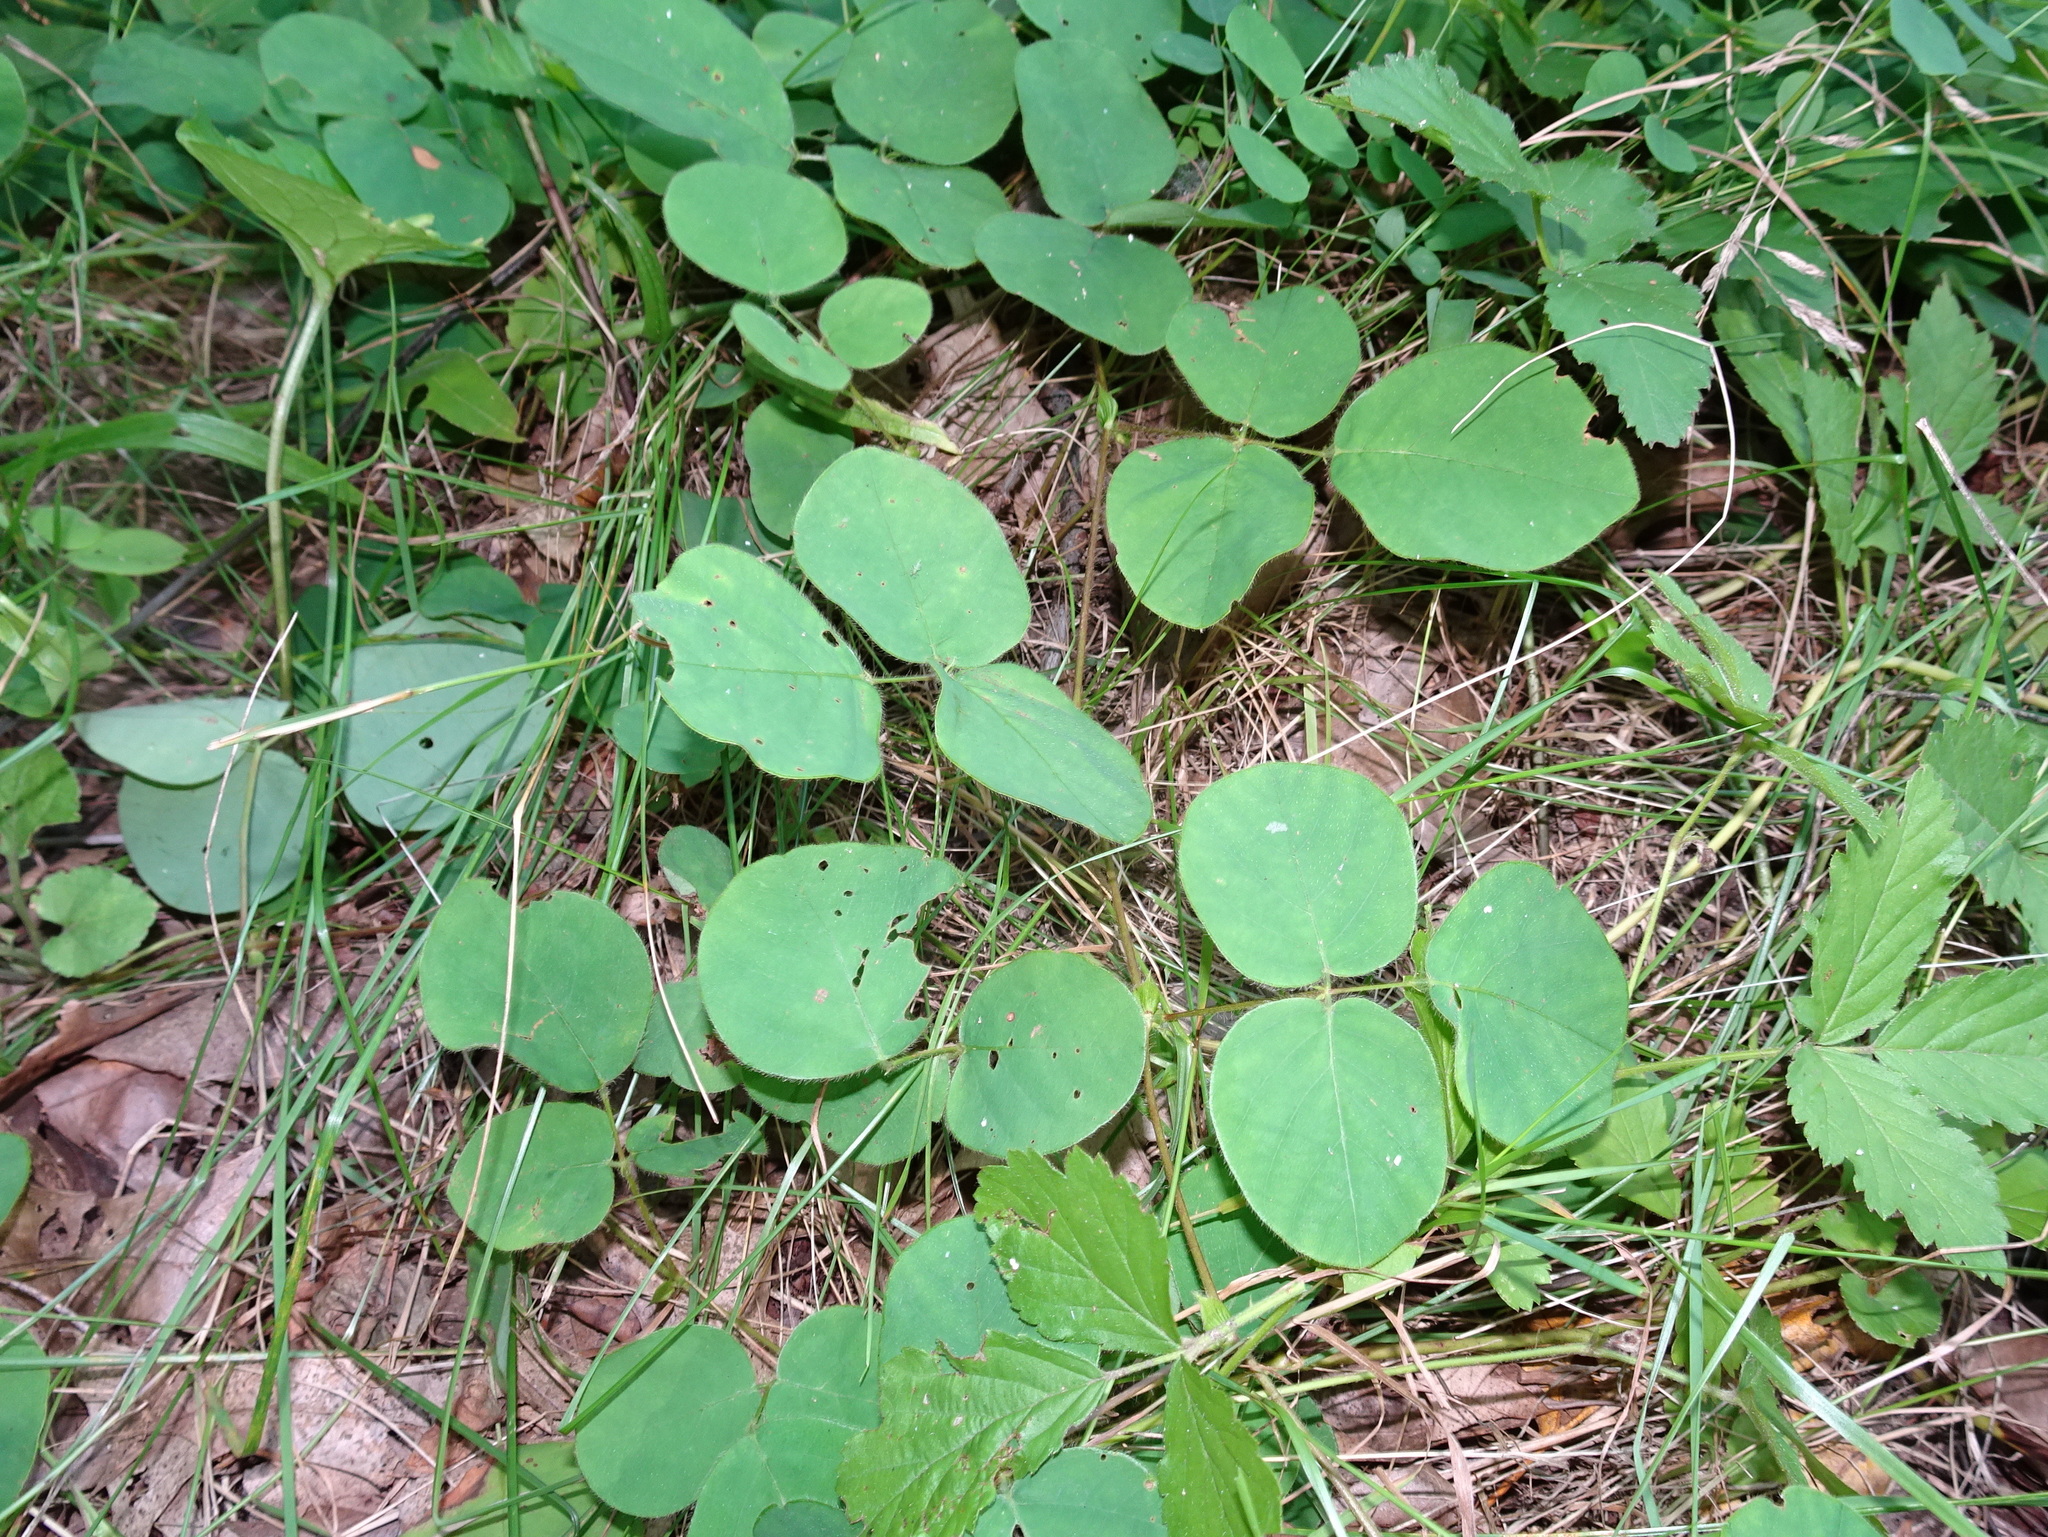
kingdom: Plantae
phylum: Tracheophyta
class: Magnoliopsida
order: Fabales
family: Fabaceae
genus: Desmodium
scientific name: Desmodium rotundifolium
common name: Dollarleaf
